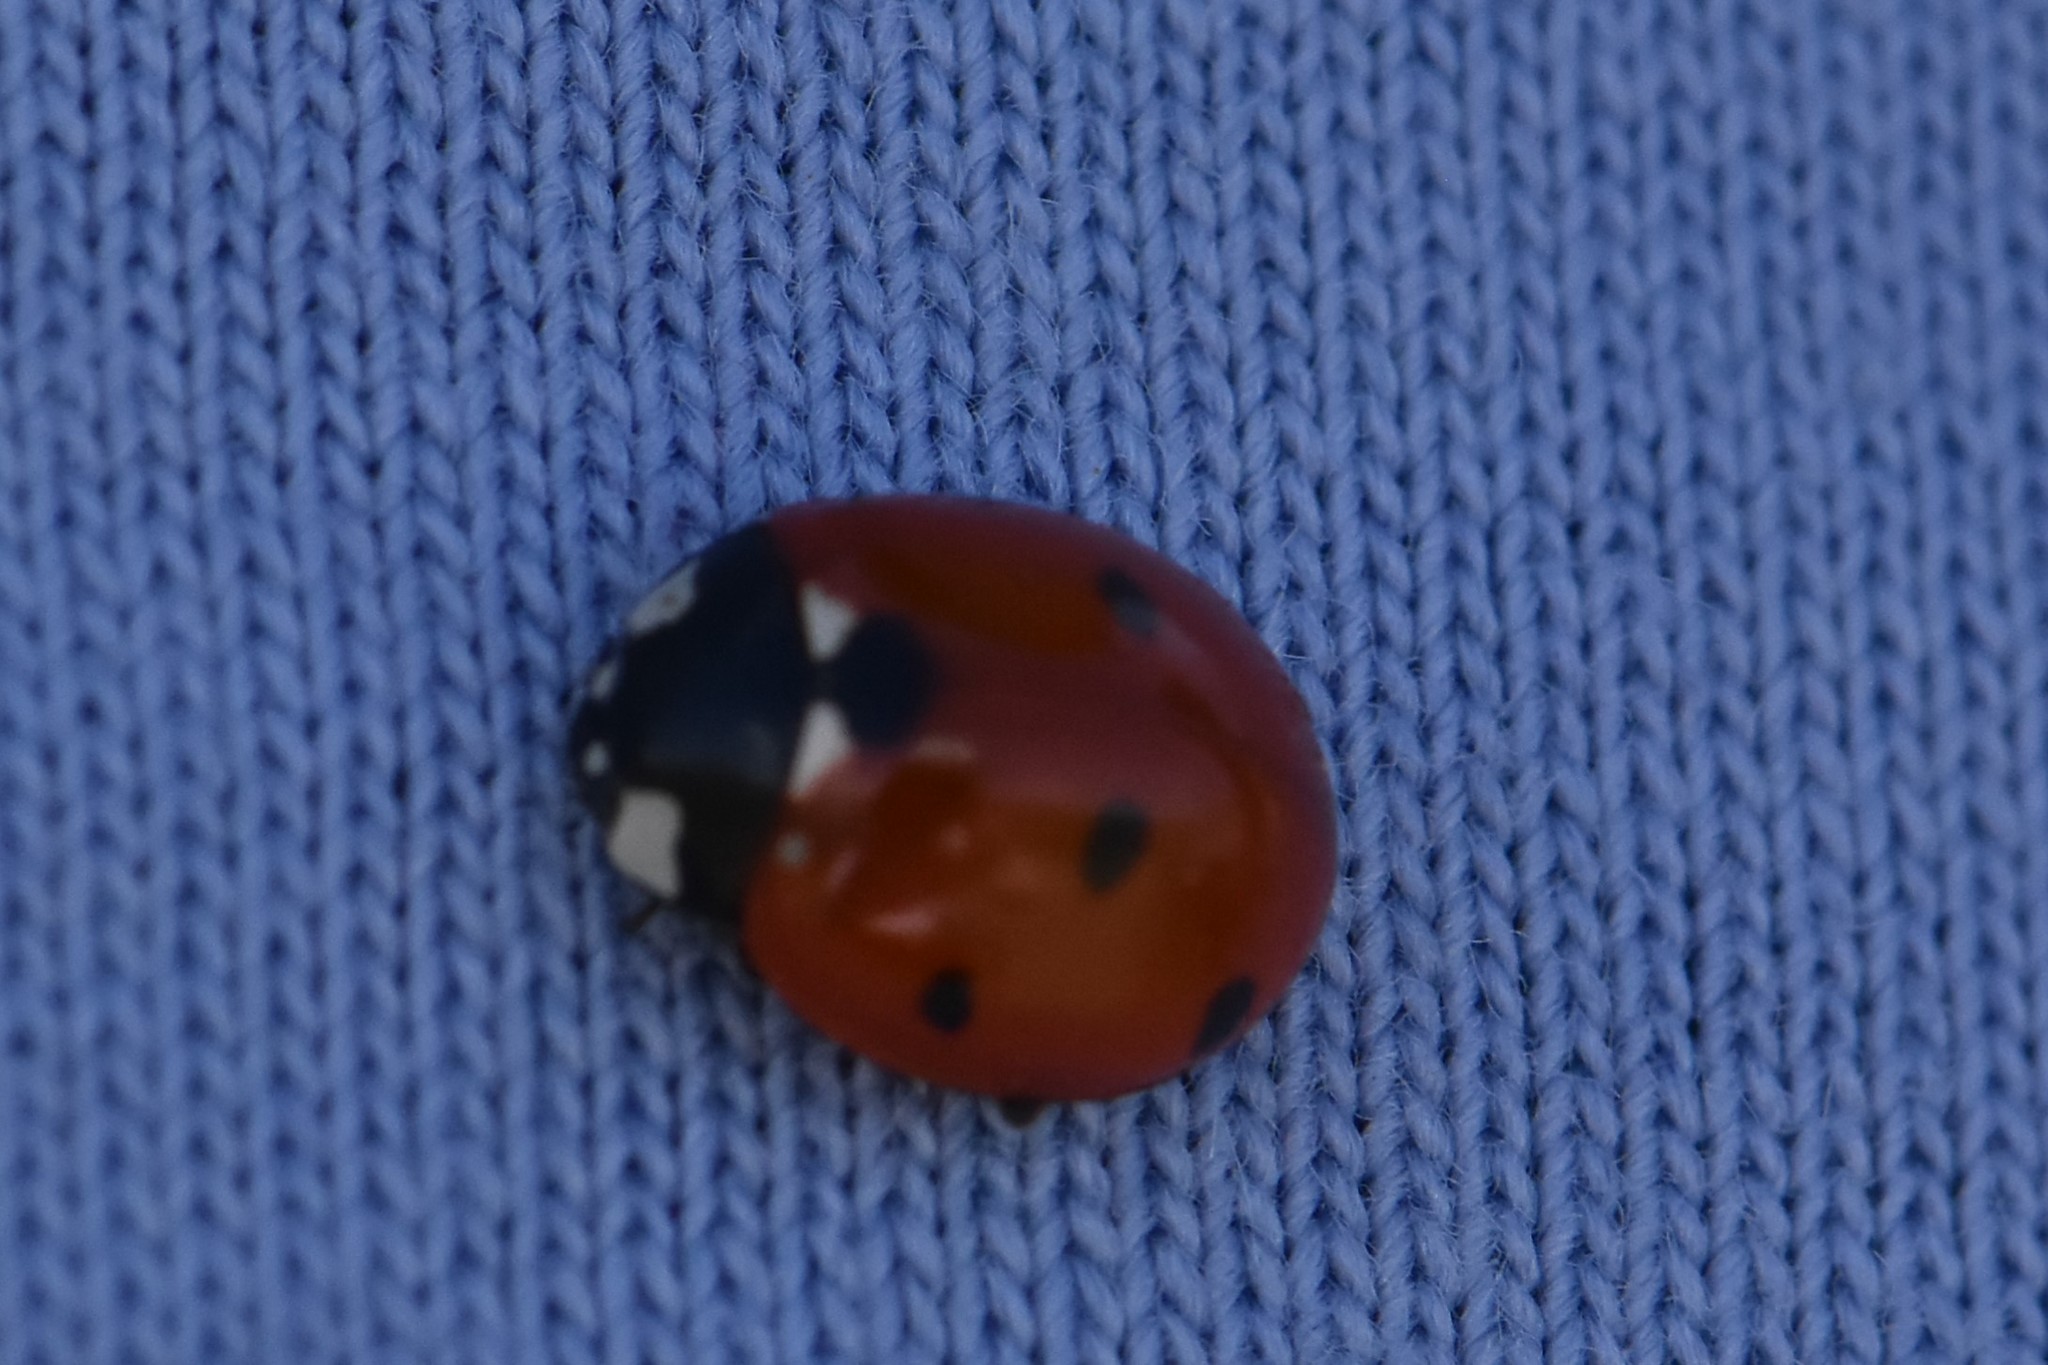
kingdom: Animalia
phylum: Arthropoda
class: Insecta
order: Coleoptera
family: Coccinellidae
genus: Coccinella
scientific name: Coccinella septempunctata
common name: Sevenspotted lady beetle
